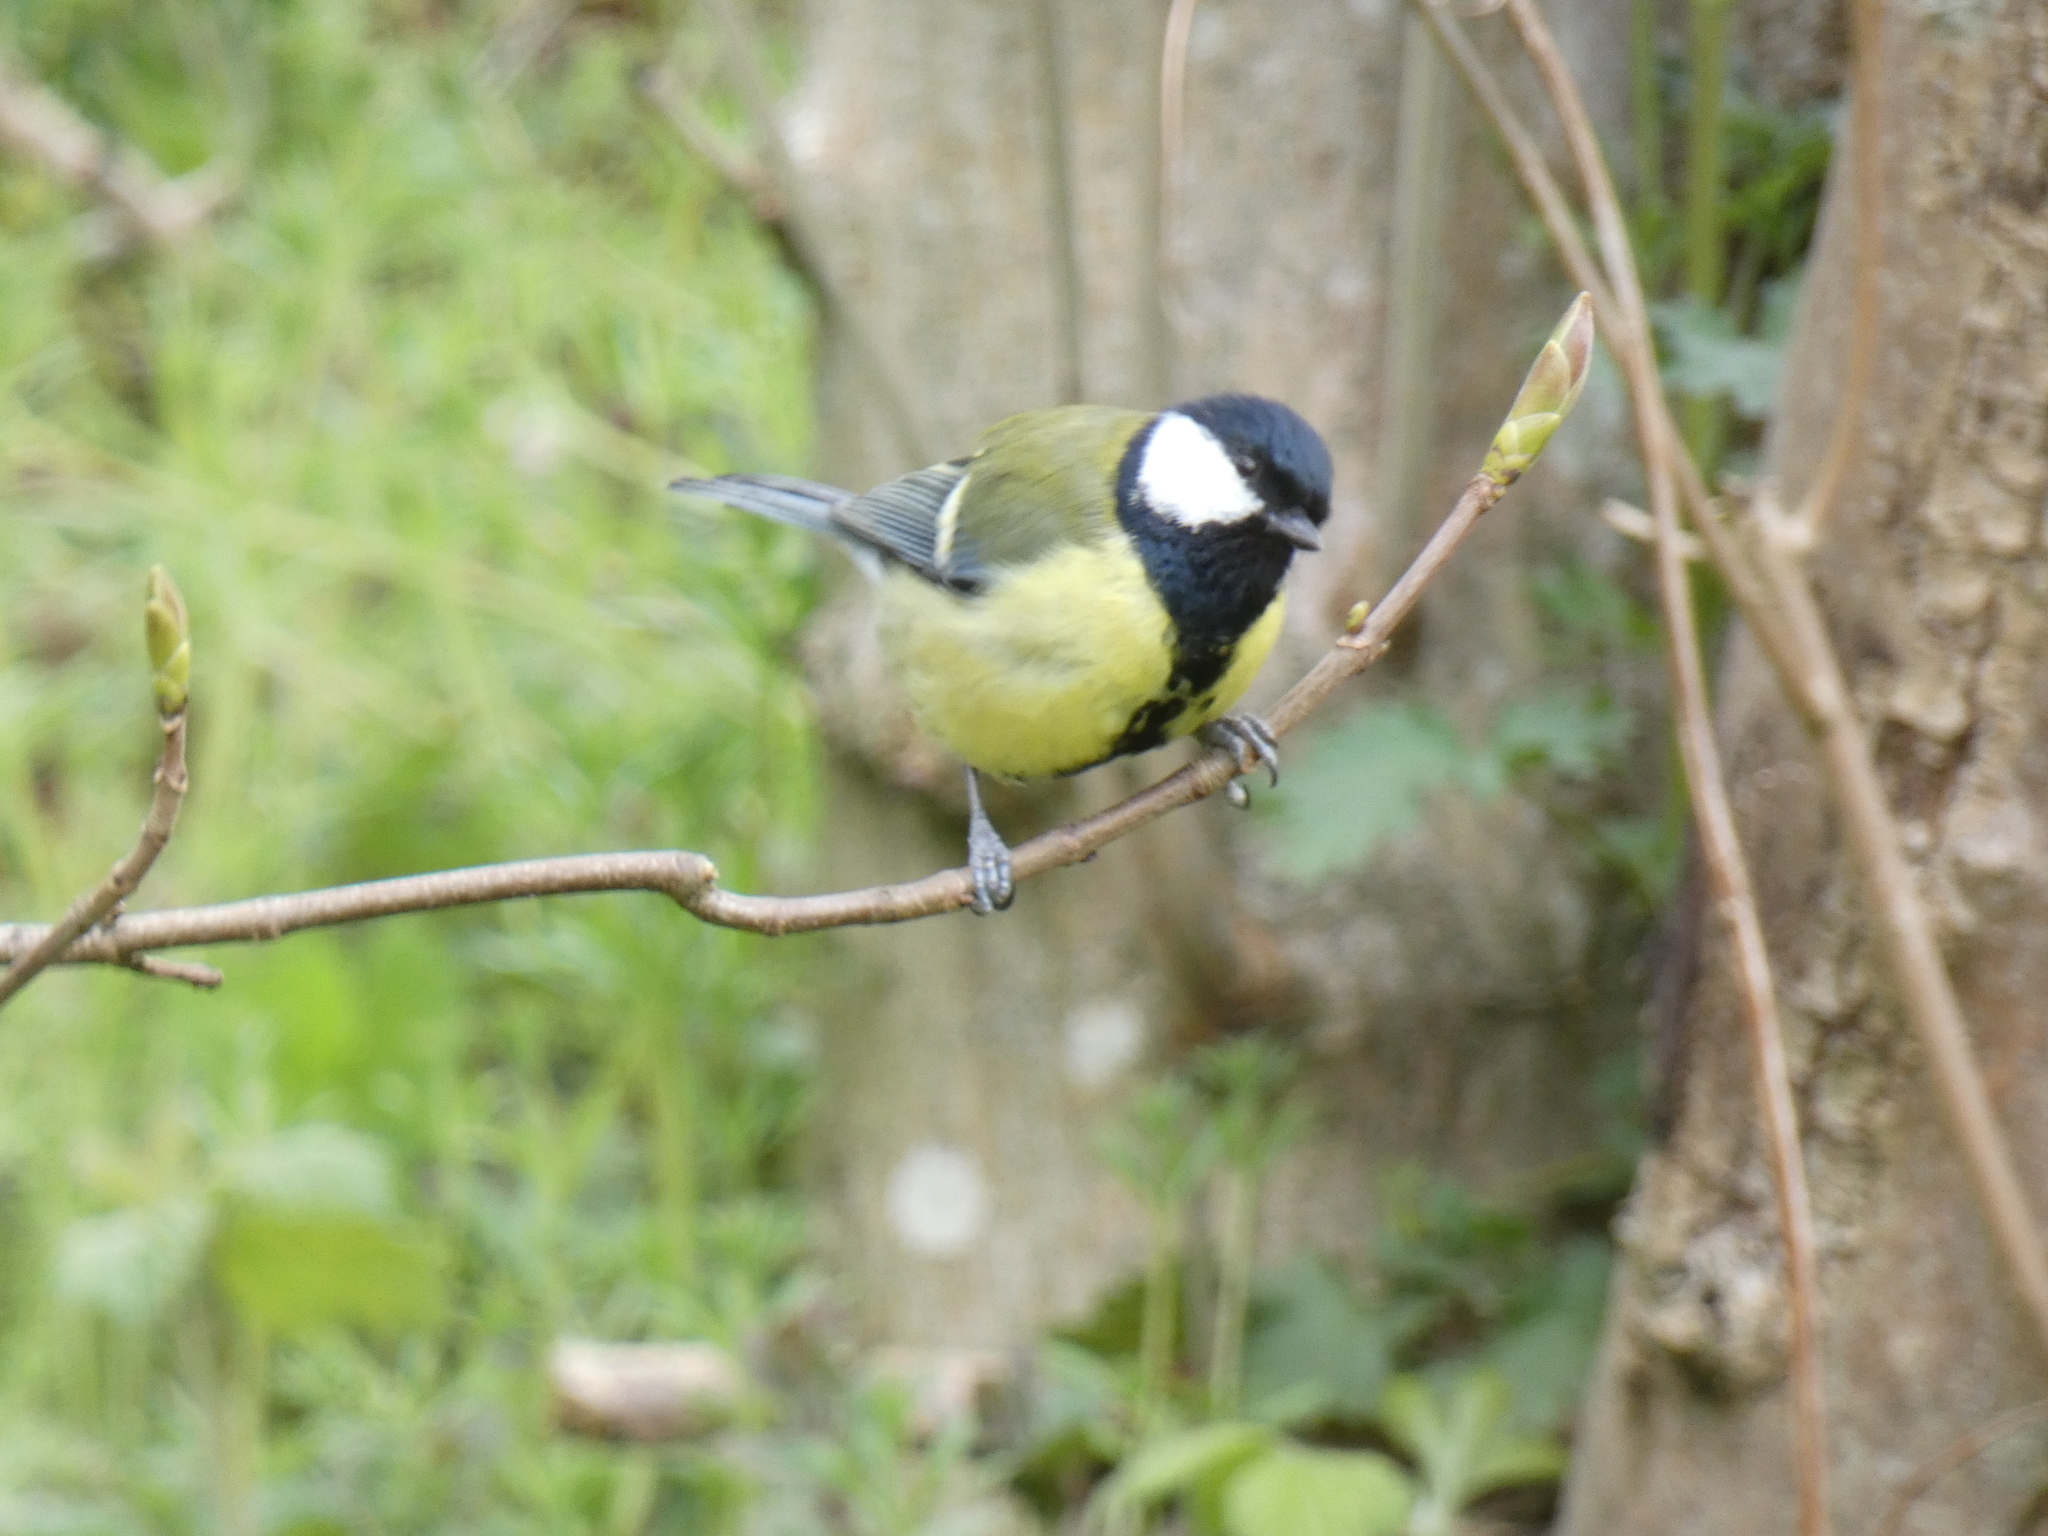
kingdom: Animalia
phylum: Chordata
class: Aves
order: Passeriformes
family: Paridae
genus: Parus
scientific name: Parus major
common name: Great tit
